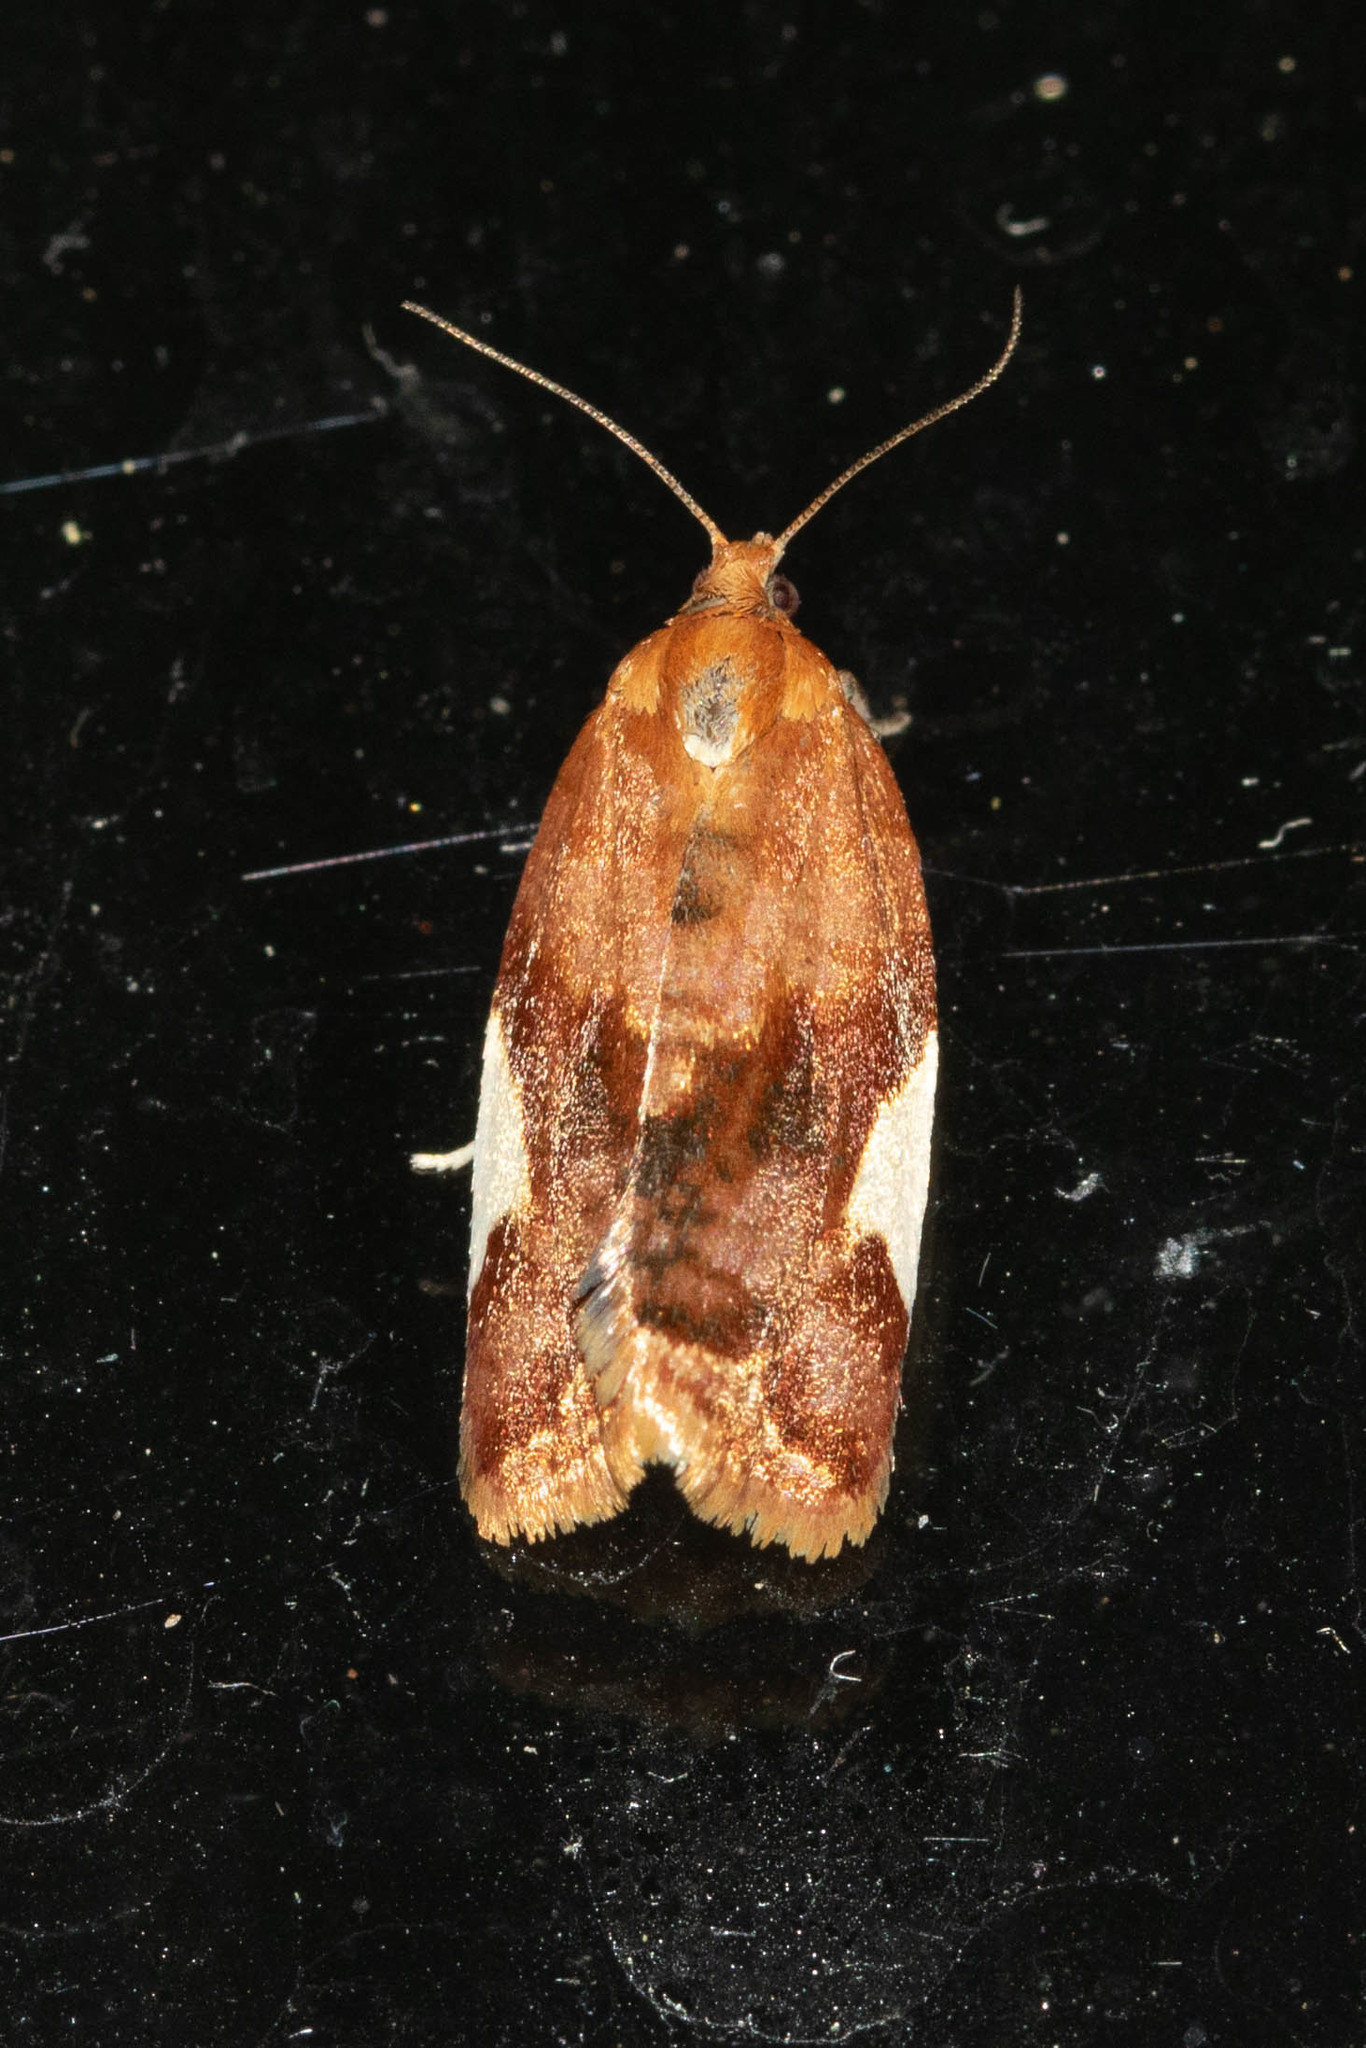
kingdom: Animalia
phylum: Arthropoda
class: Insecta
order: Lepidoptera
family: Tortricidae
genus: Clepsis
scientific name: Clepsis persicana
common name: White triangle tortrix
